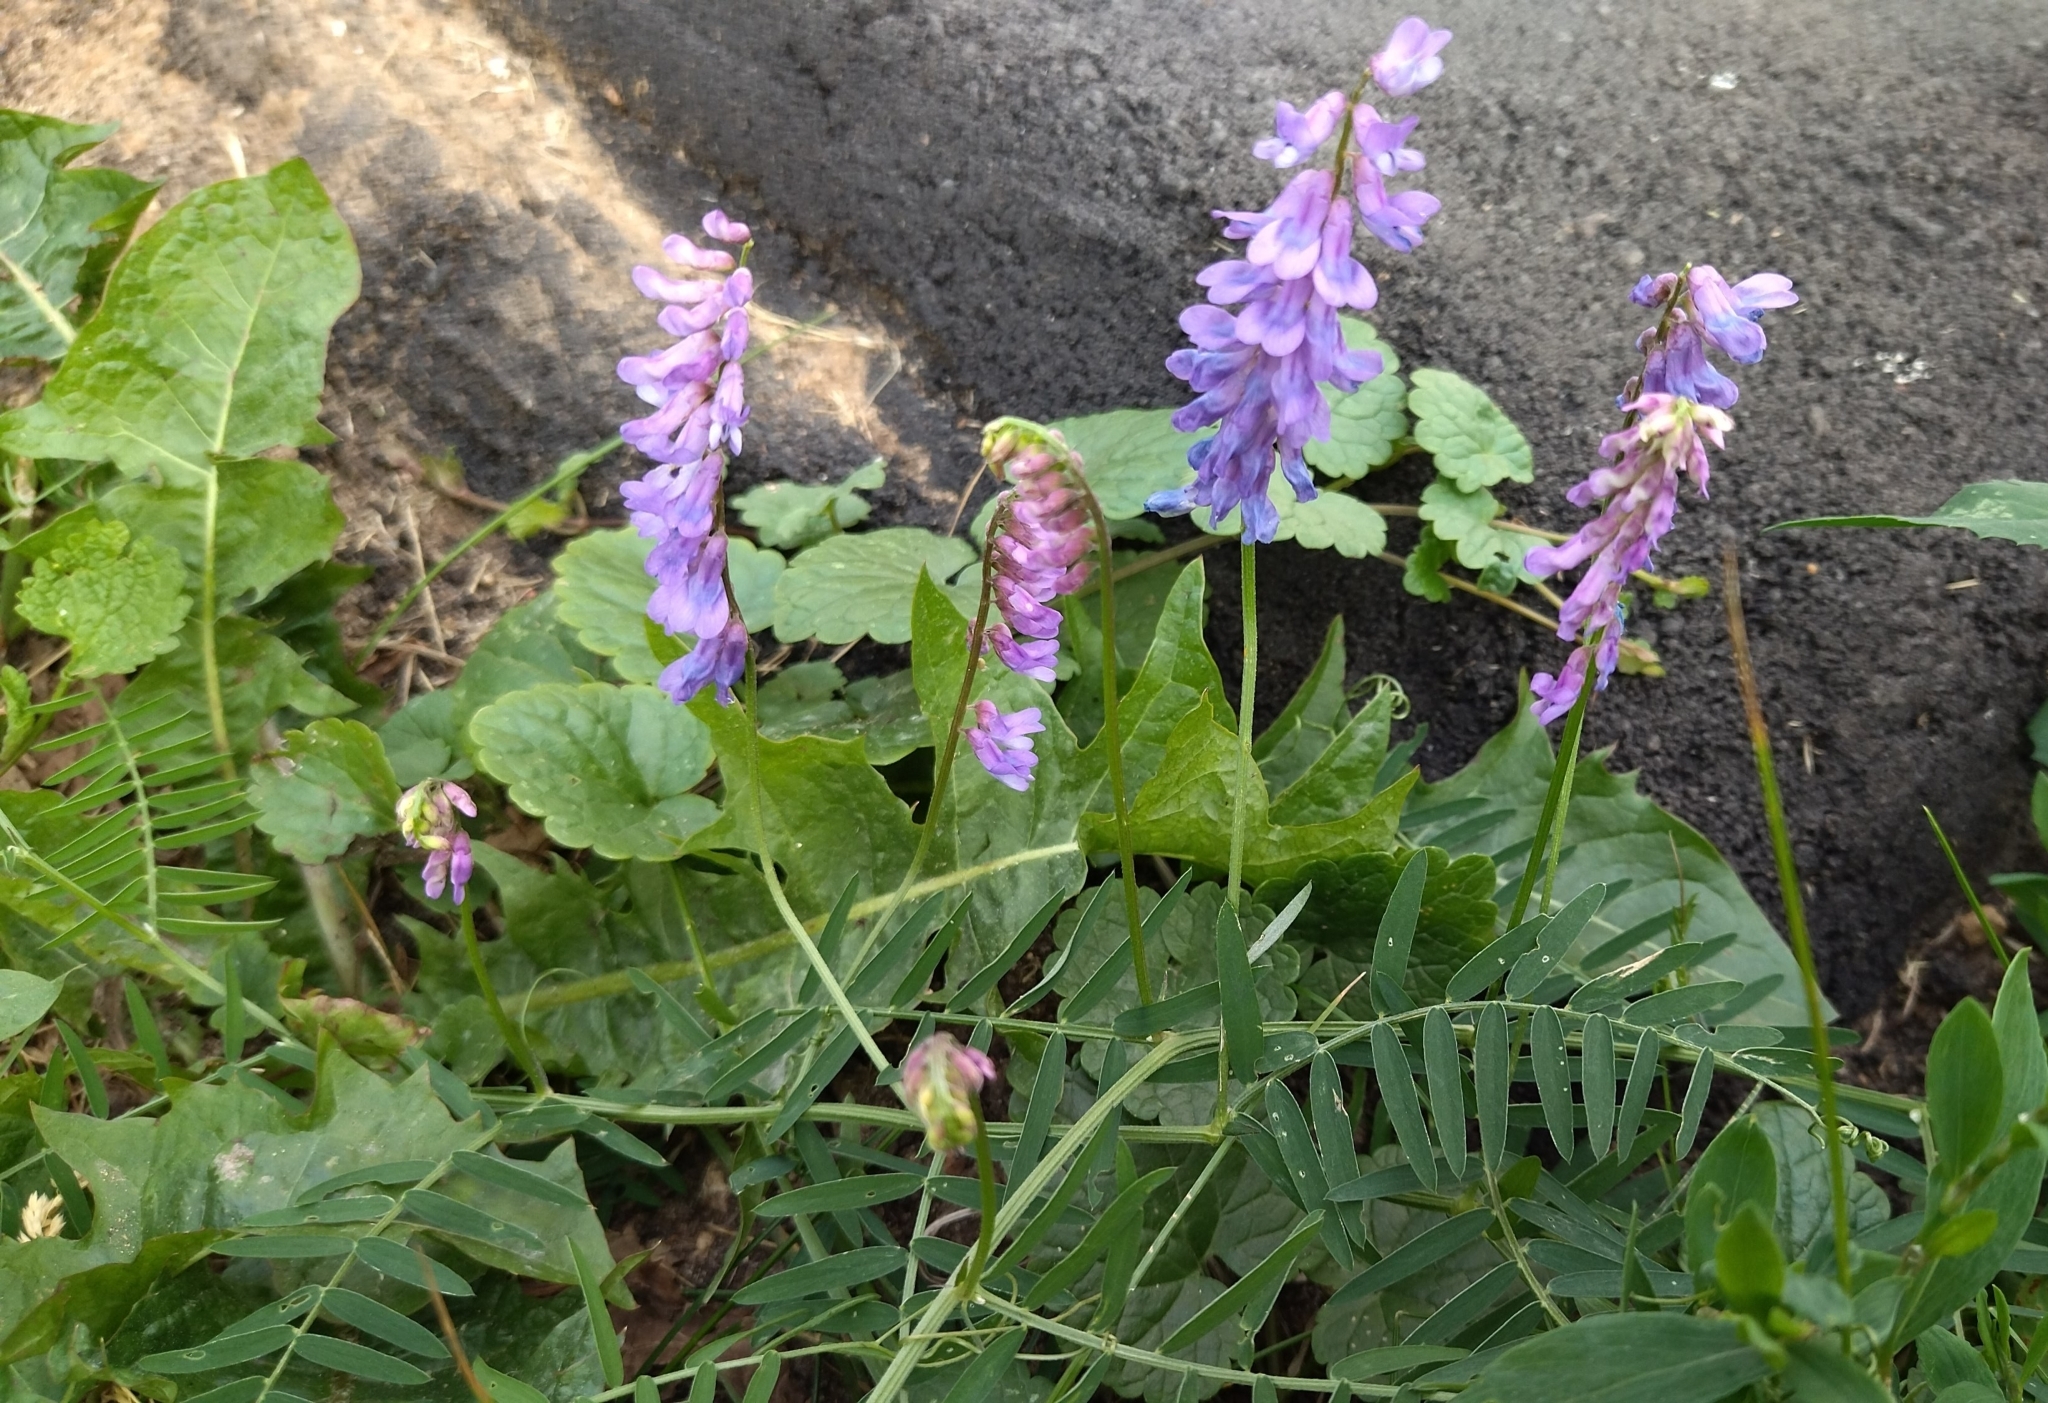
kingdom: Plantae
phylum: Tracheophyta
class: Magnoliopsida
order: Fabales
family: Fabaceae
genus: Vicia
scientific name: Vicia cracca
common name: Bird vetch
